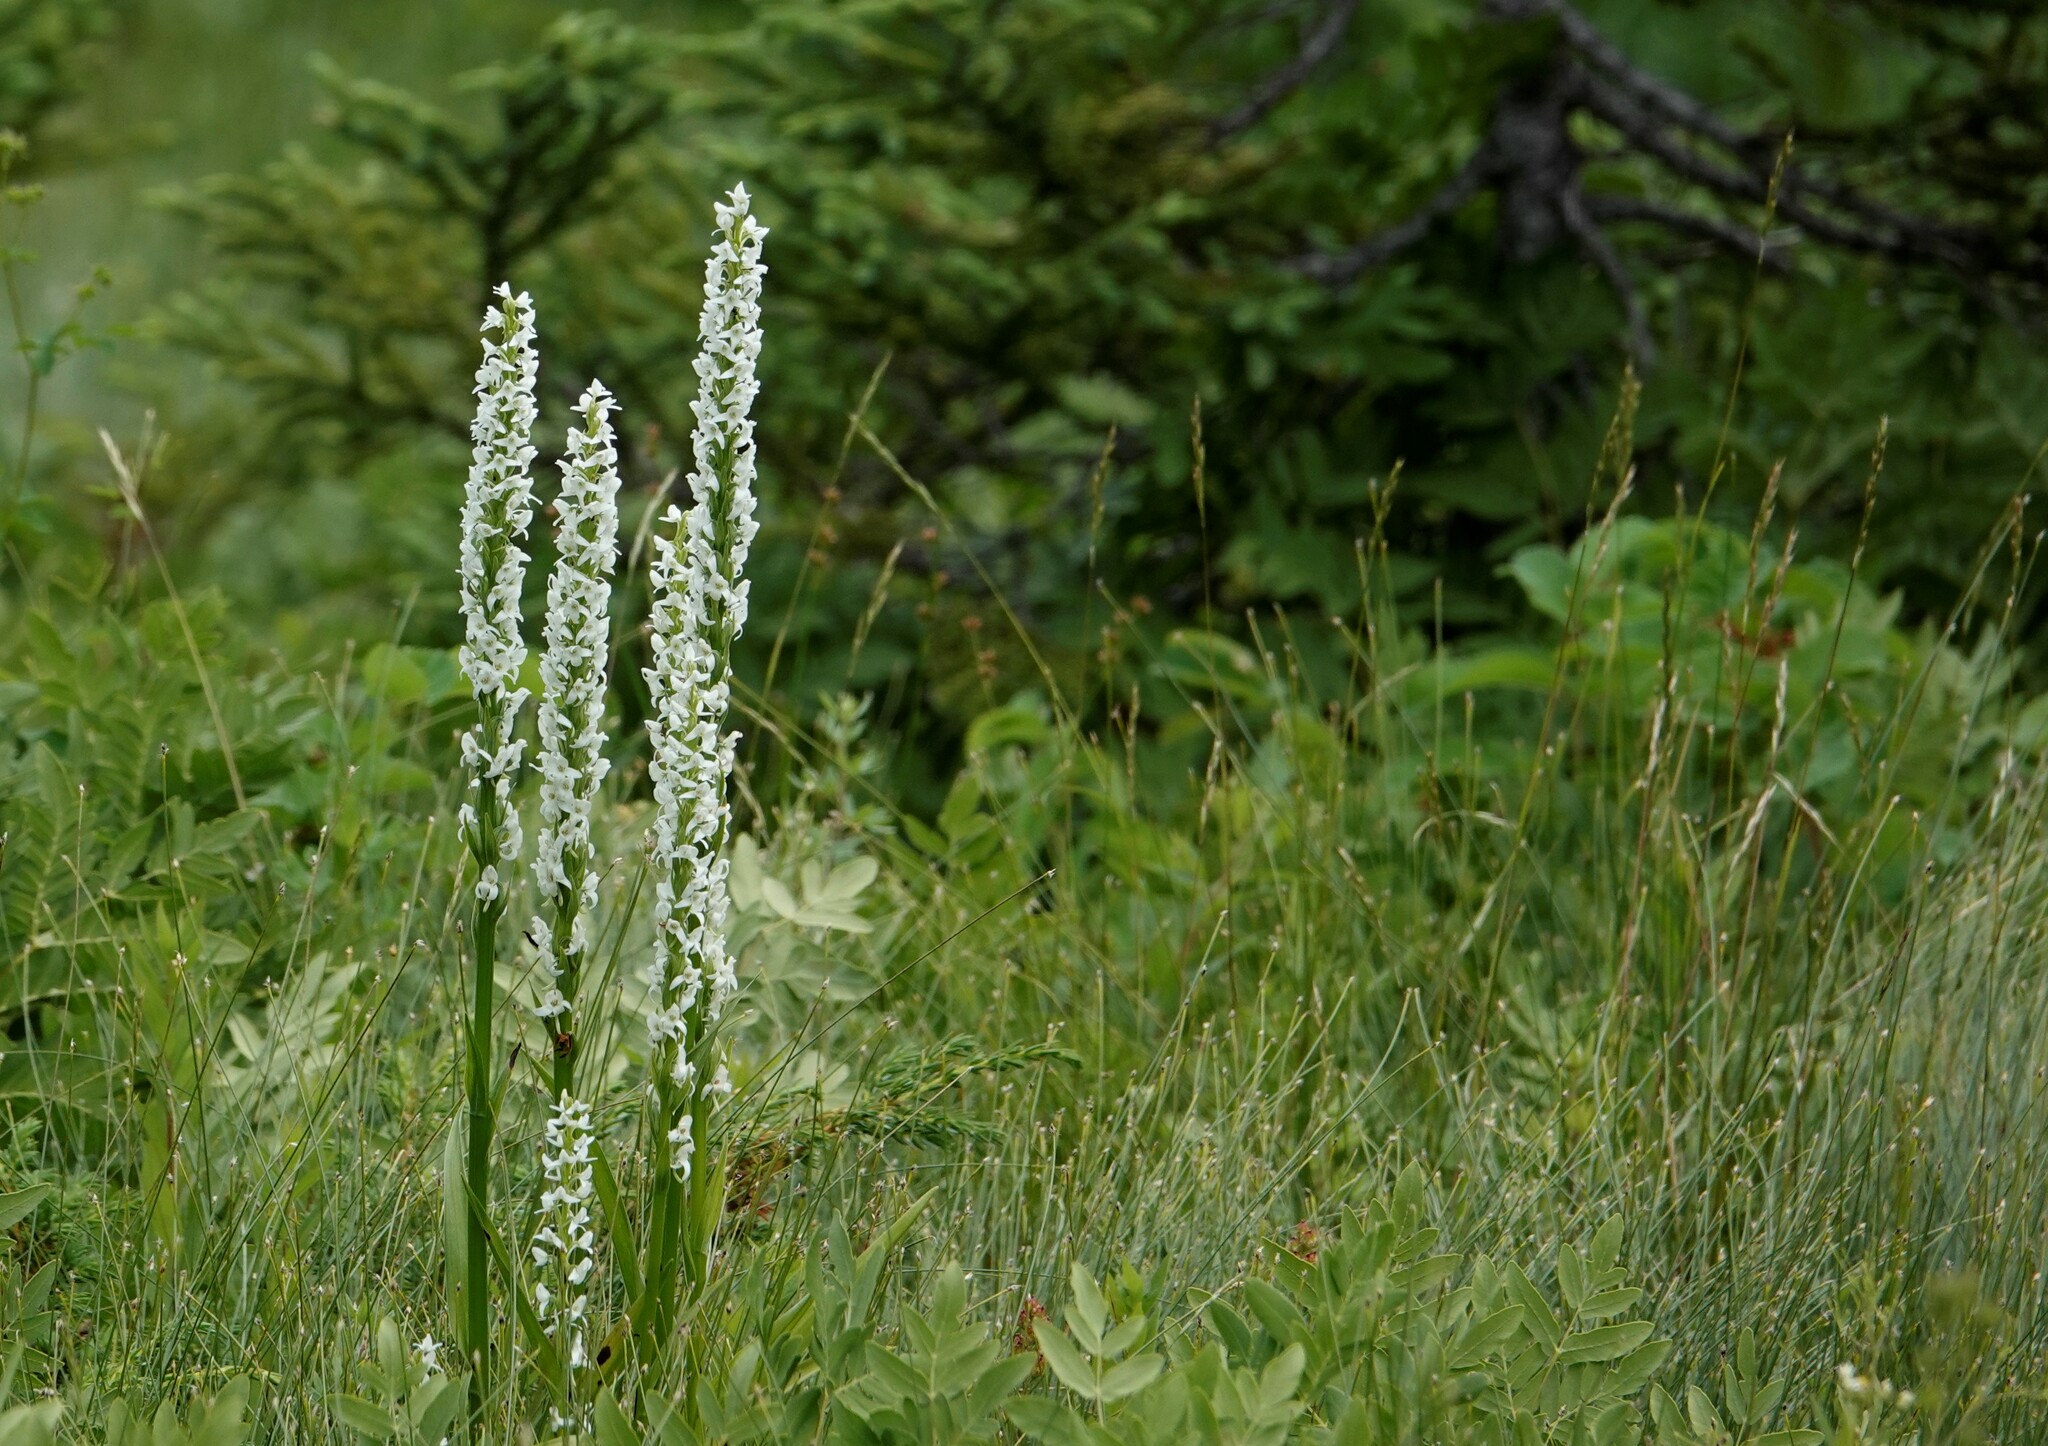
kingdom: Plantae
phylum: Tracheophyta
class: Liliopsida
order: Asparagales
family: Orchidaceae
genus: Platanthera
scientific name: Platanthera dilatata
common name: Bog candles
